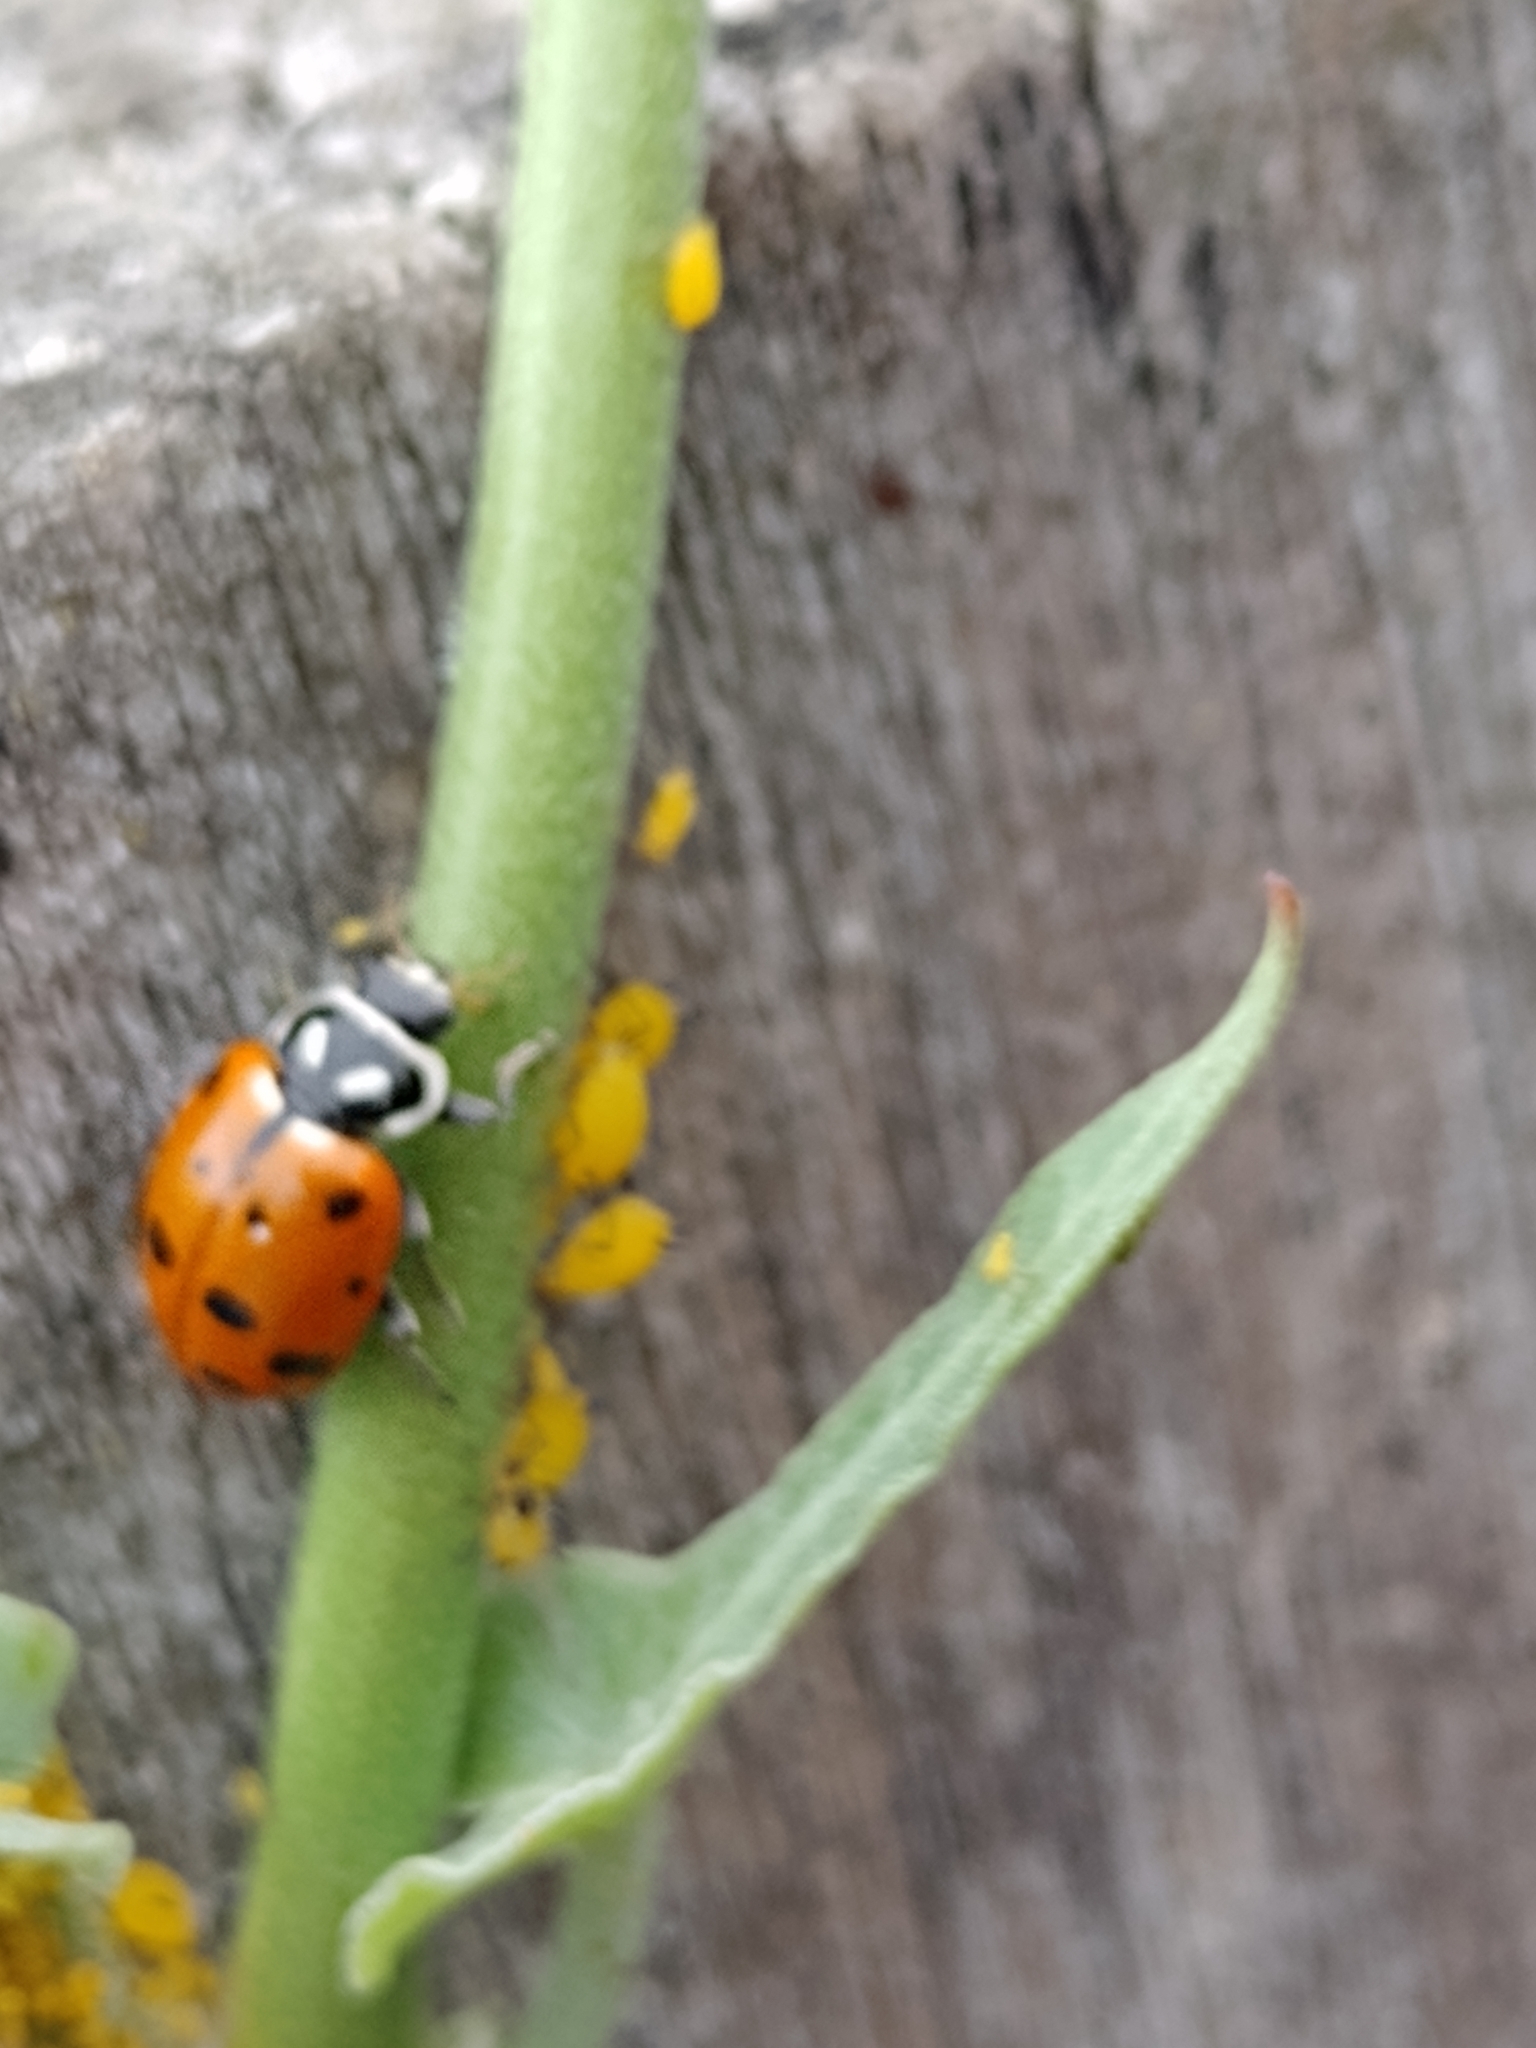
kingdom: Animalia
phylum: Arthropoda
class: Insecta
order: Coleoptera
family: Coccinellidae
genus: Hippodamia
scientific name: Hippodamia convergens
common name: Convergent lady beetle
